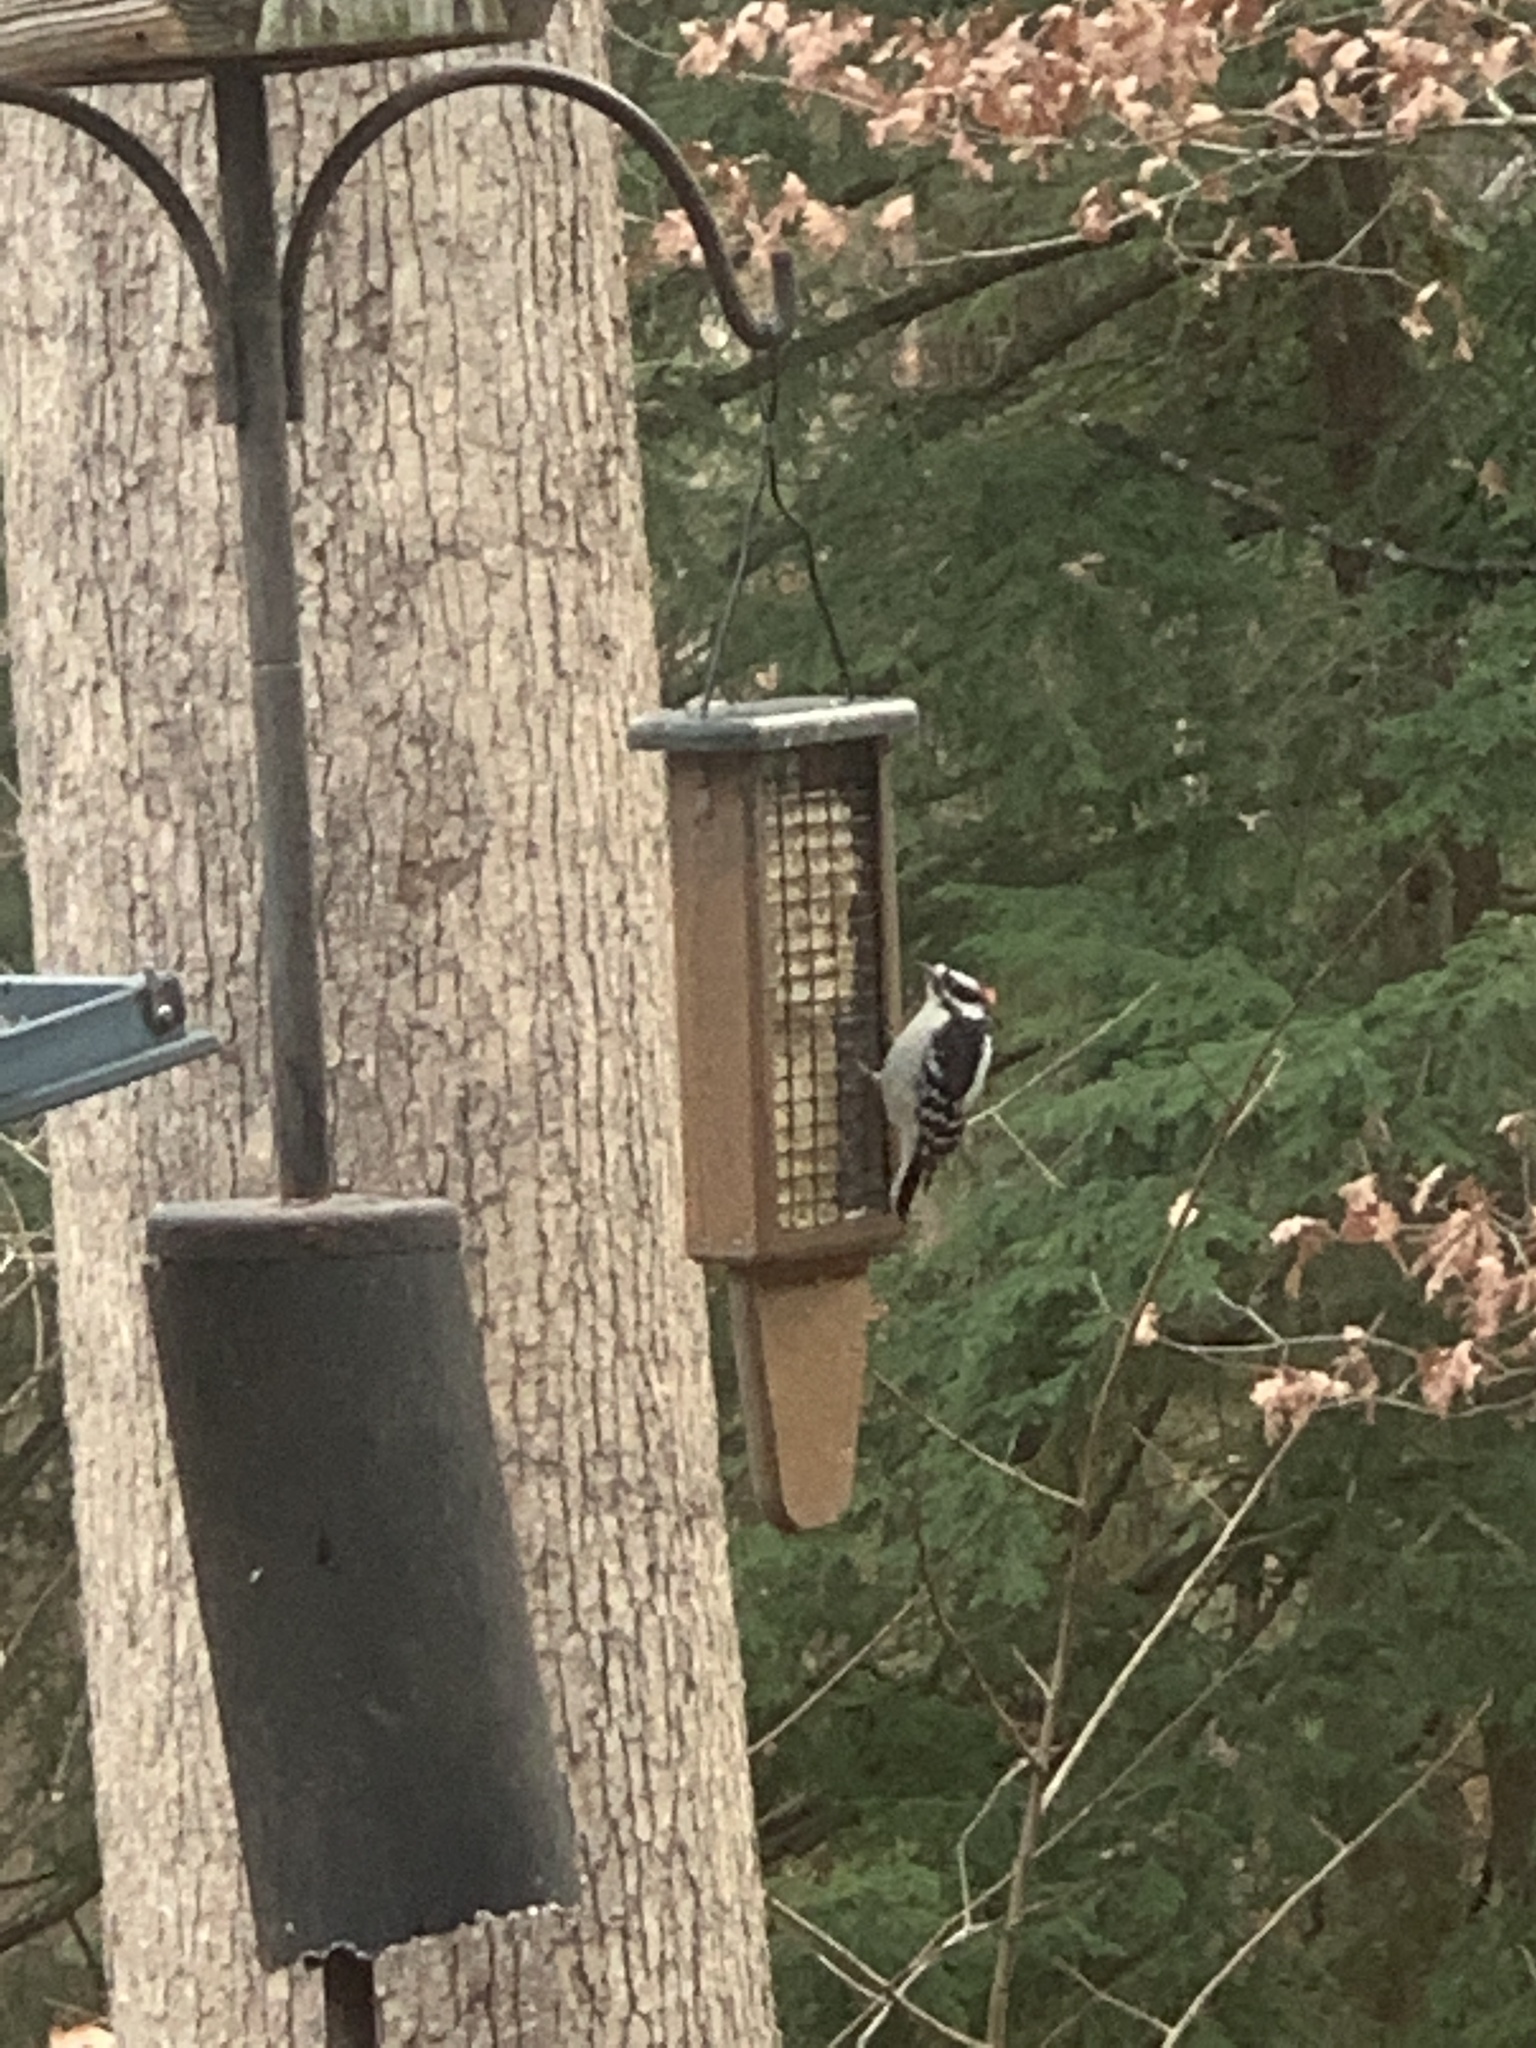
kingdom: Animalia
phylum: Chordata
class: Aves
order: Piciformes
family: Picidae
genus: Dryobates
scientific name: Dryobates pubescens
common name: Downy woodpecker
